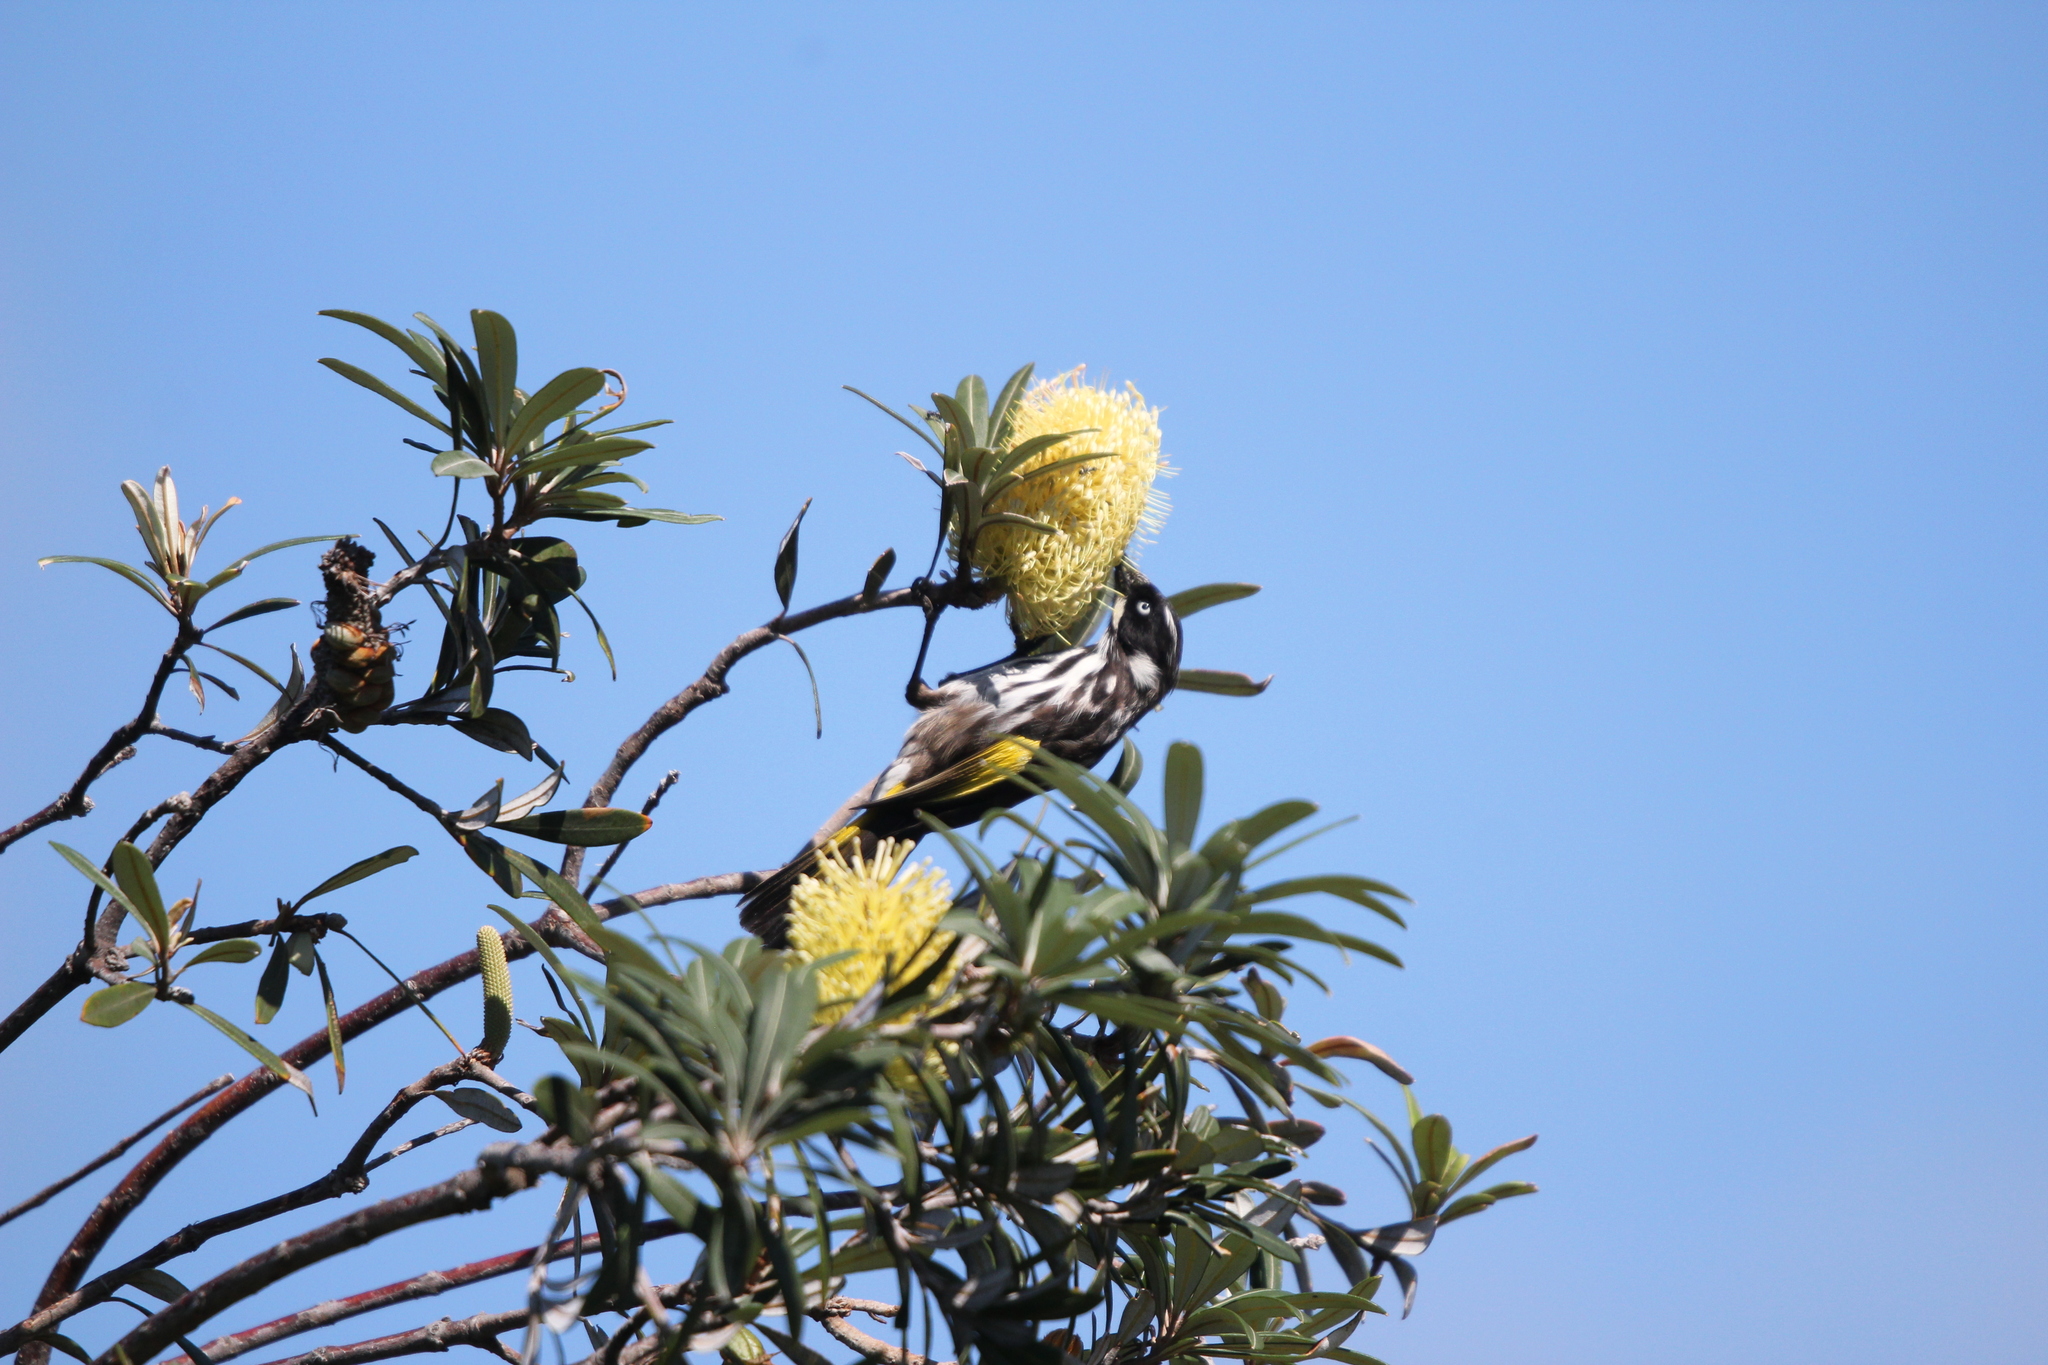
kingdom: Animalia
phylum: Chordata
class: Aves
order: Passeriformes
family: Meliphagidae
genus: Phylidonyris
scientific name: Phylidonyris novaehollandiae
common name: New holland honeyeater
